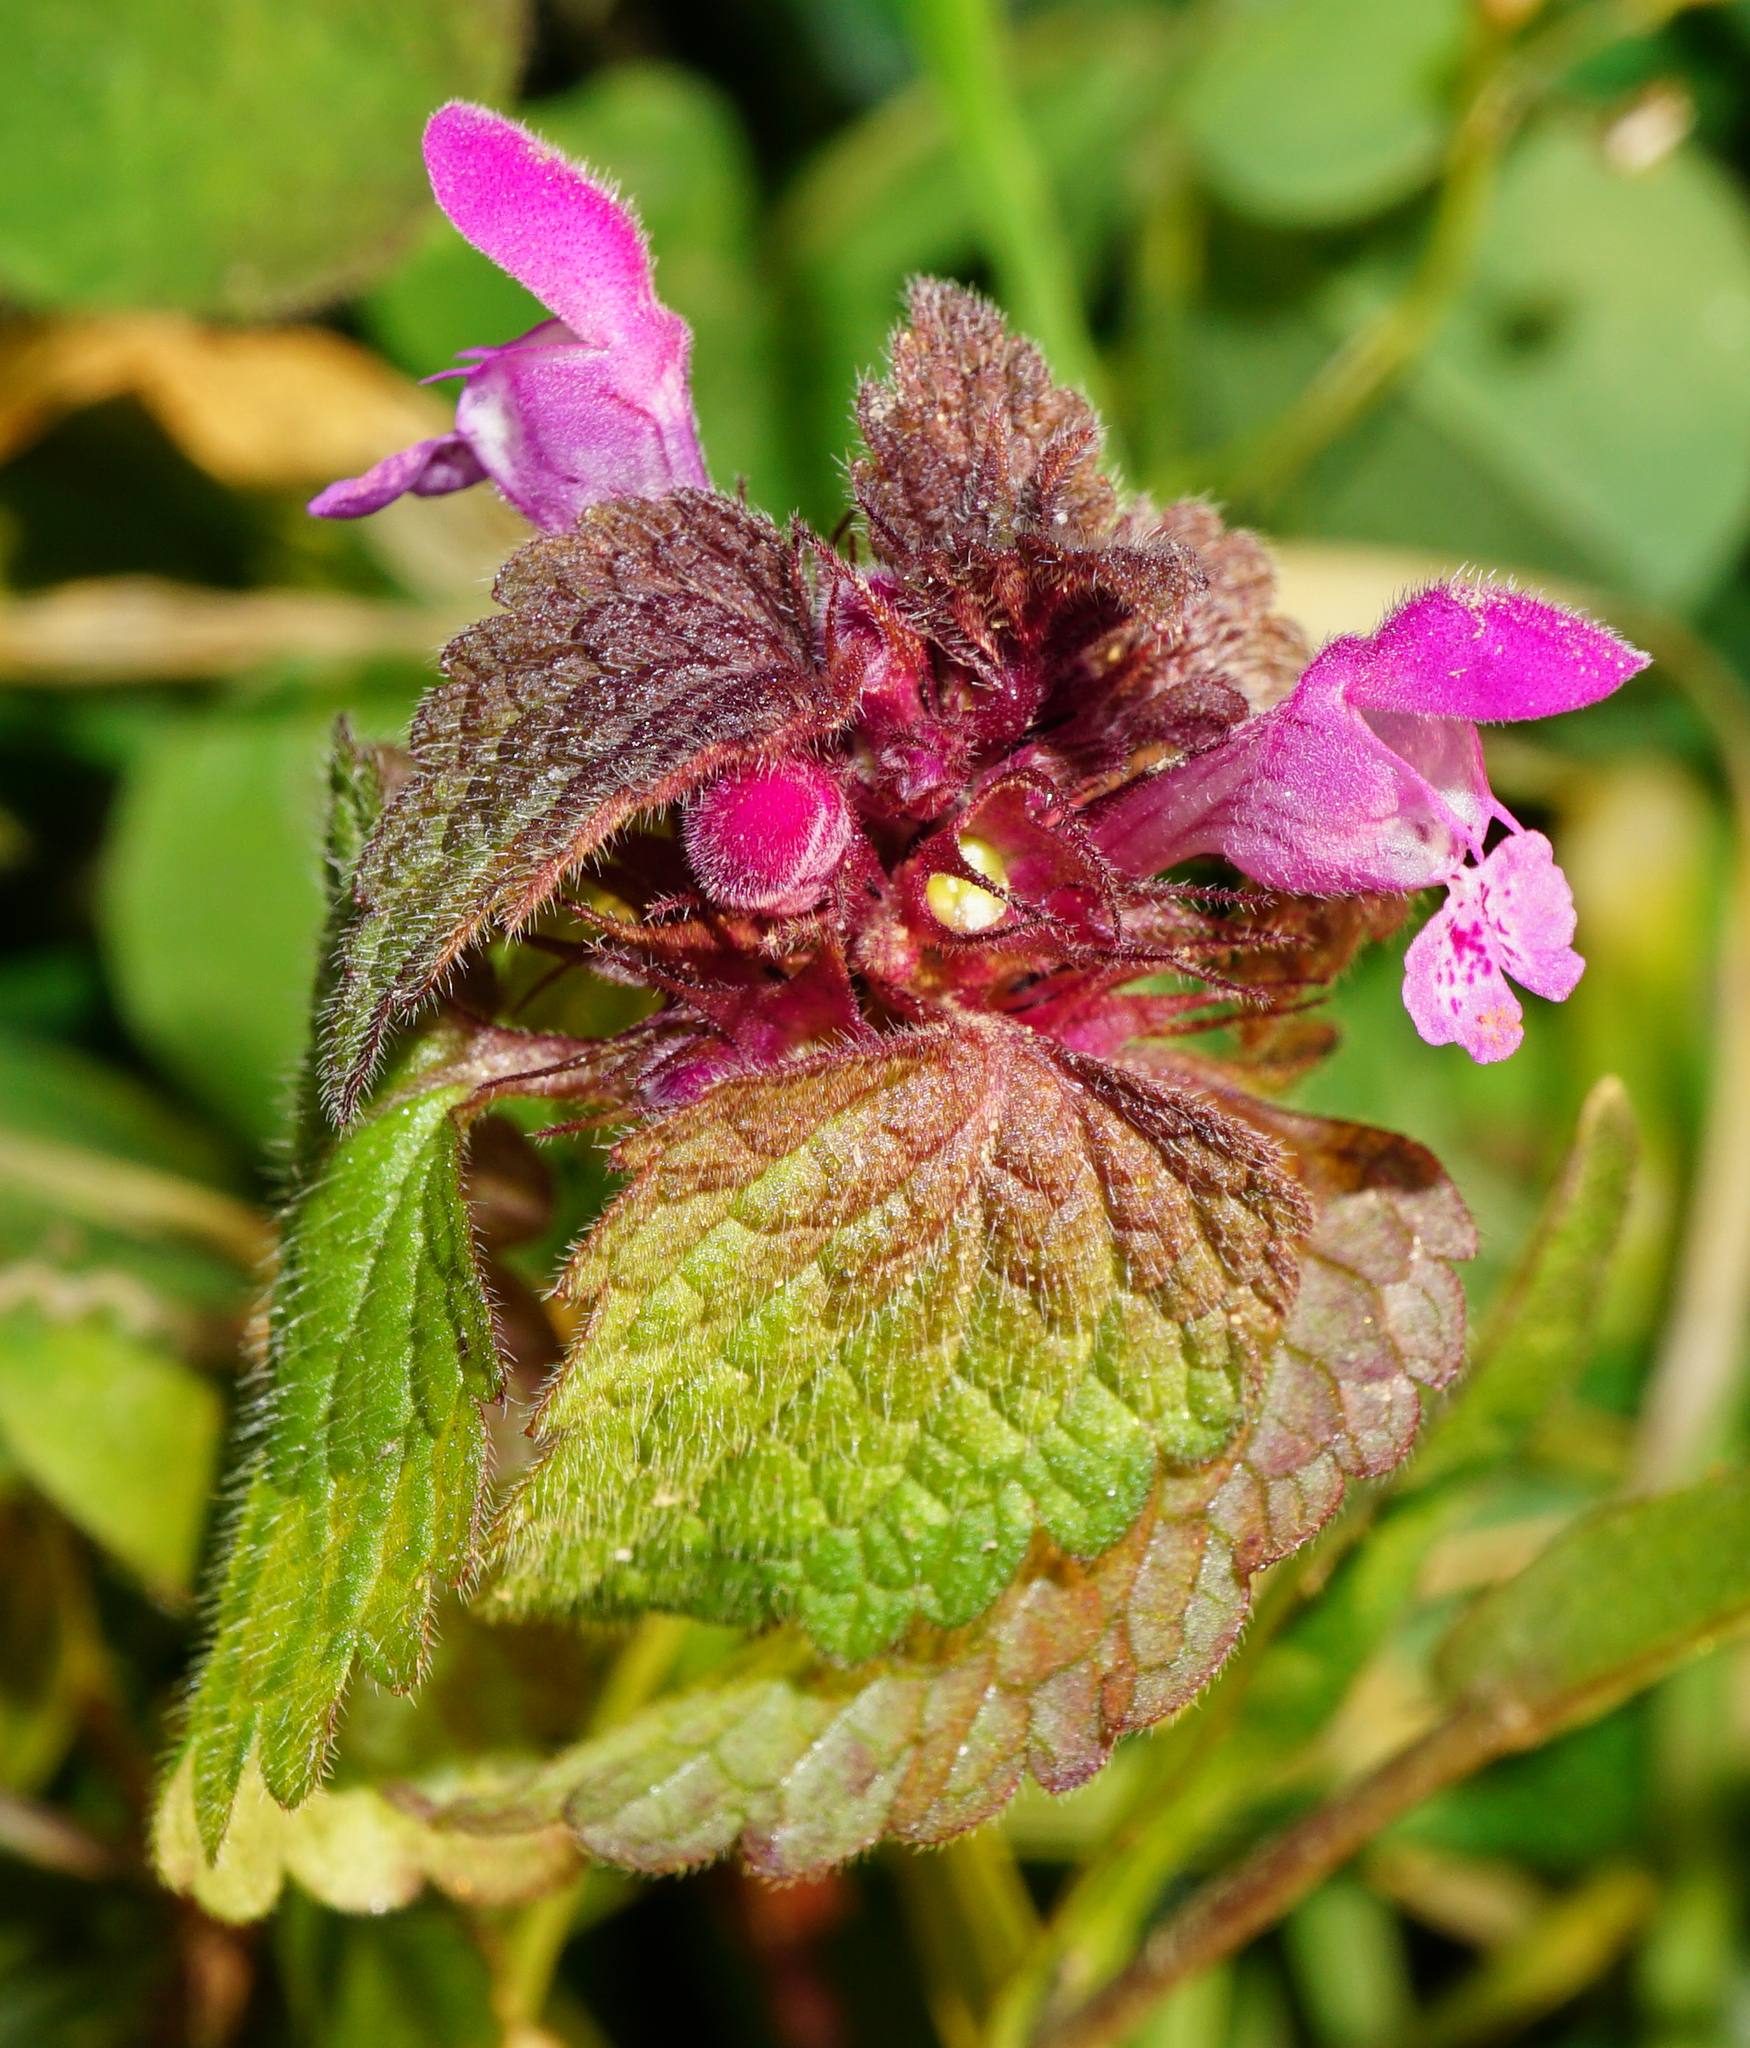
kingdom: Plantae
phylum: Tracheophyta
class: Magnoliopsida
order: Lamiales
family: Lamiaceae
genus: Lamium
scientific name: Lamium purpureum
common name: Red dead-nettle
